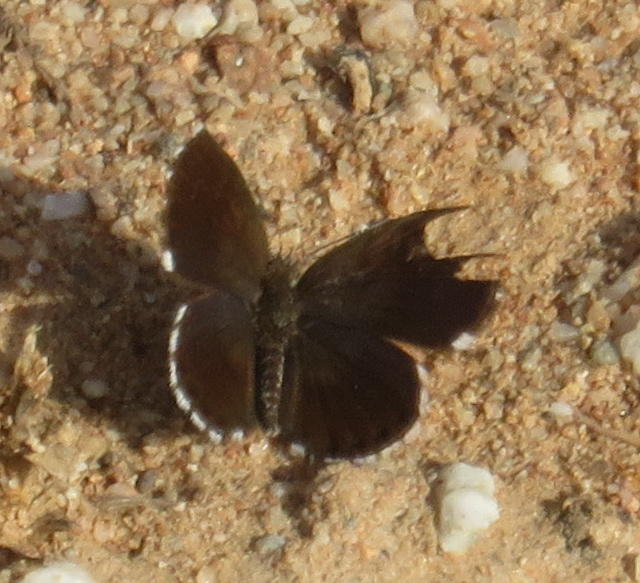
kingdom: Animalia
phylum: Arthropoda
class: Insecta
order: Lepidoptera
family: Lycaenidae
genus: Oraidium
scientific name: Oraidium barberae
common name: Dwarf blue
